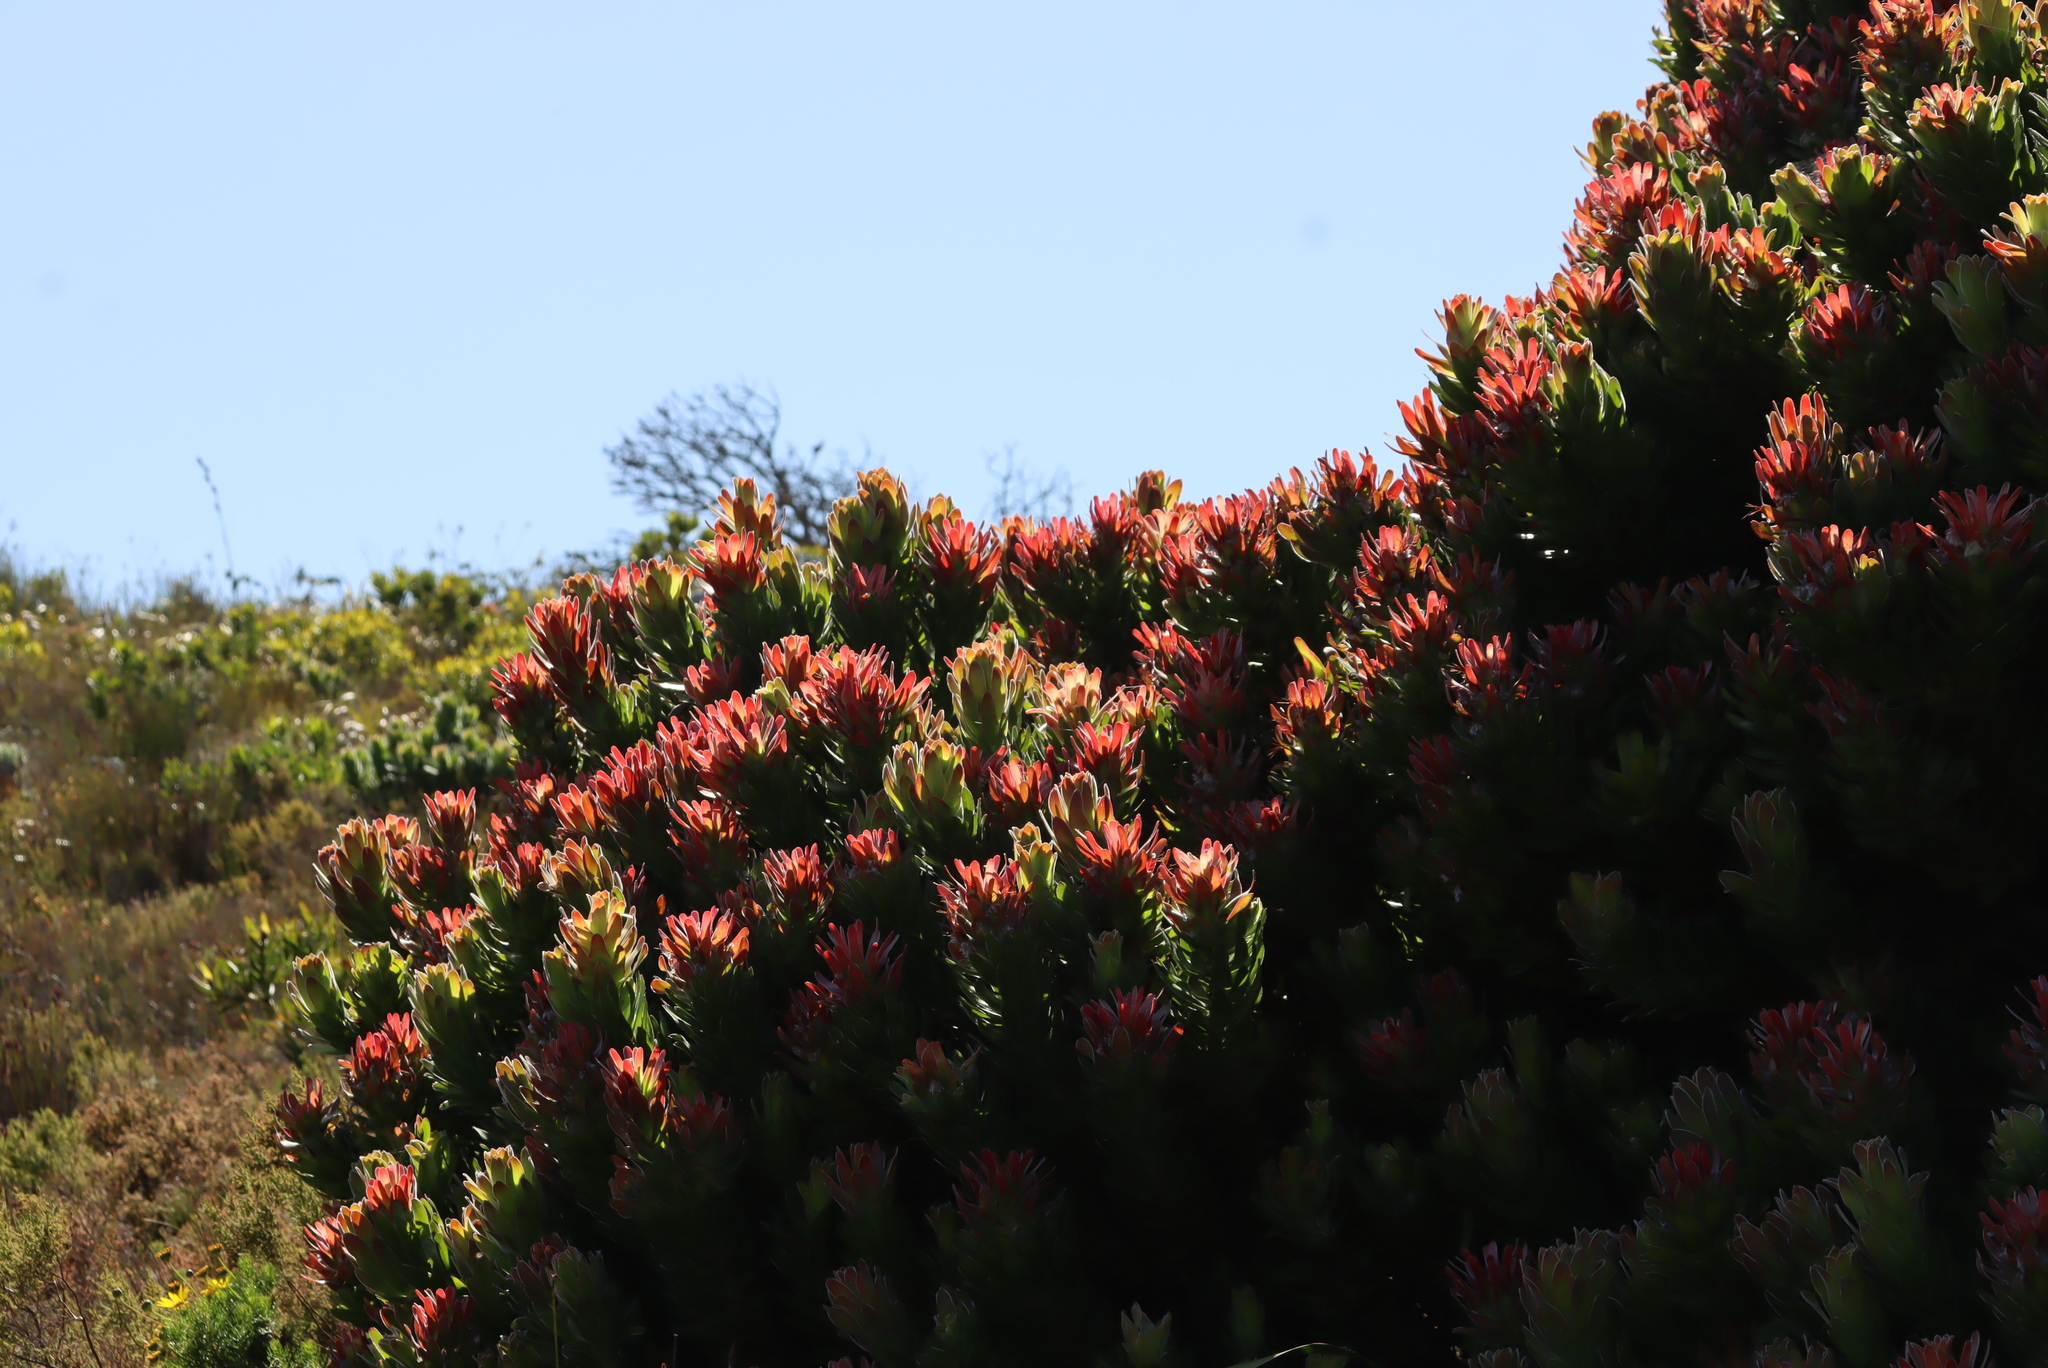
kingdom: Plantae
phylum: Tracheophyta
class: Magnoliopsida
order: Proteales
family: Proteaceae
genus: Mimetes
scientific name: Mimetes fimbriifolius
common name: Fringed bottlebrush
